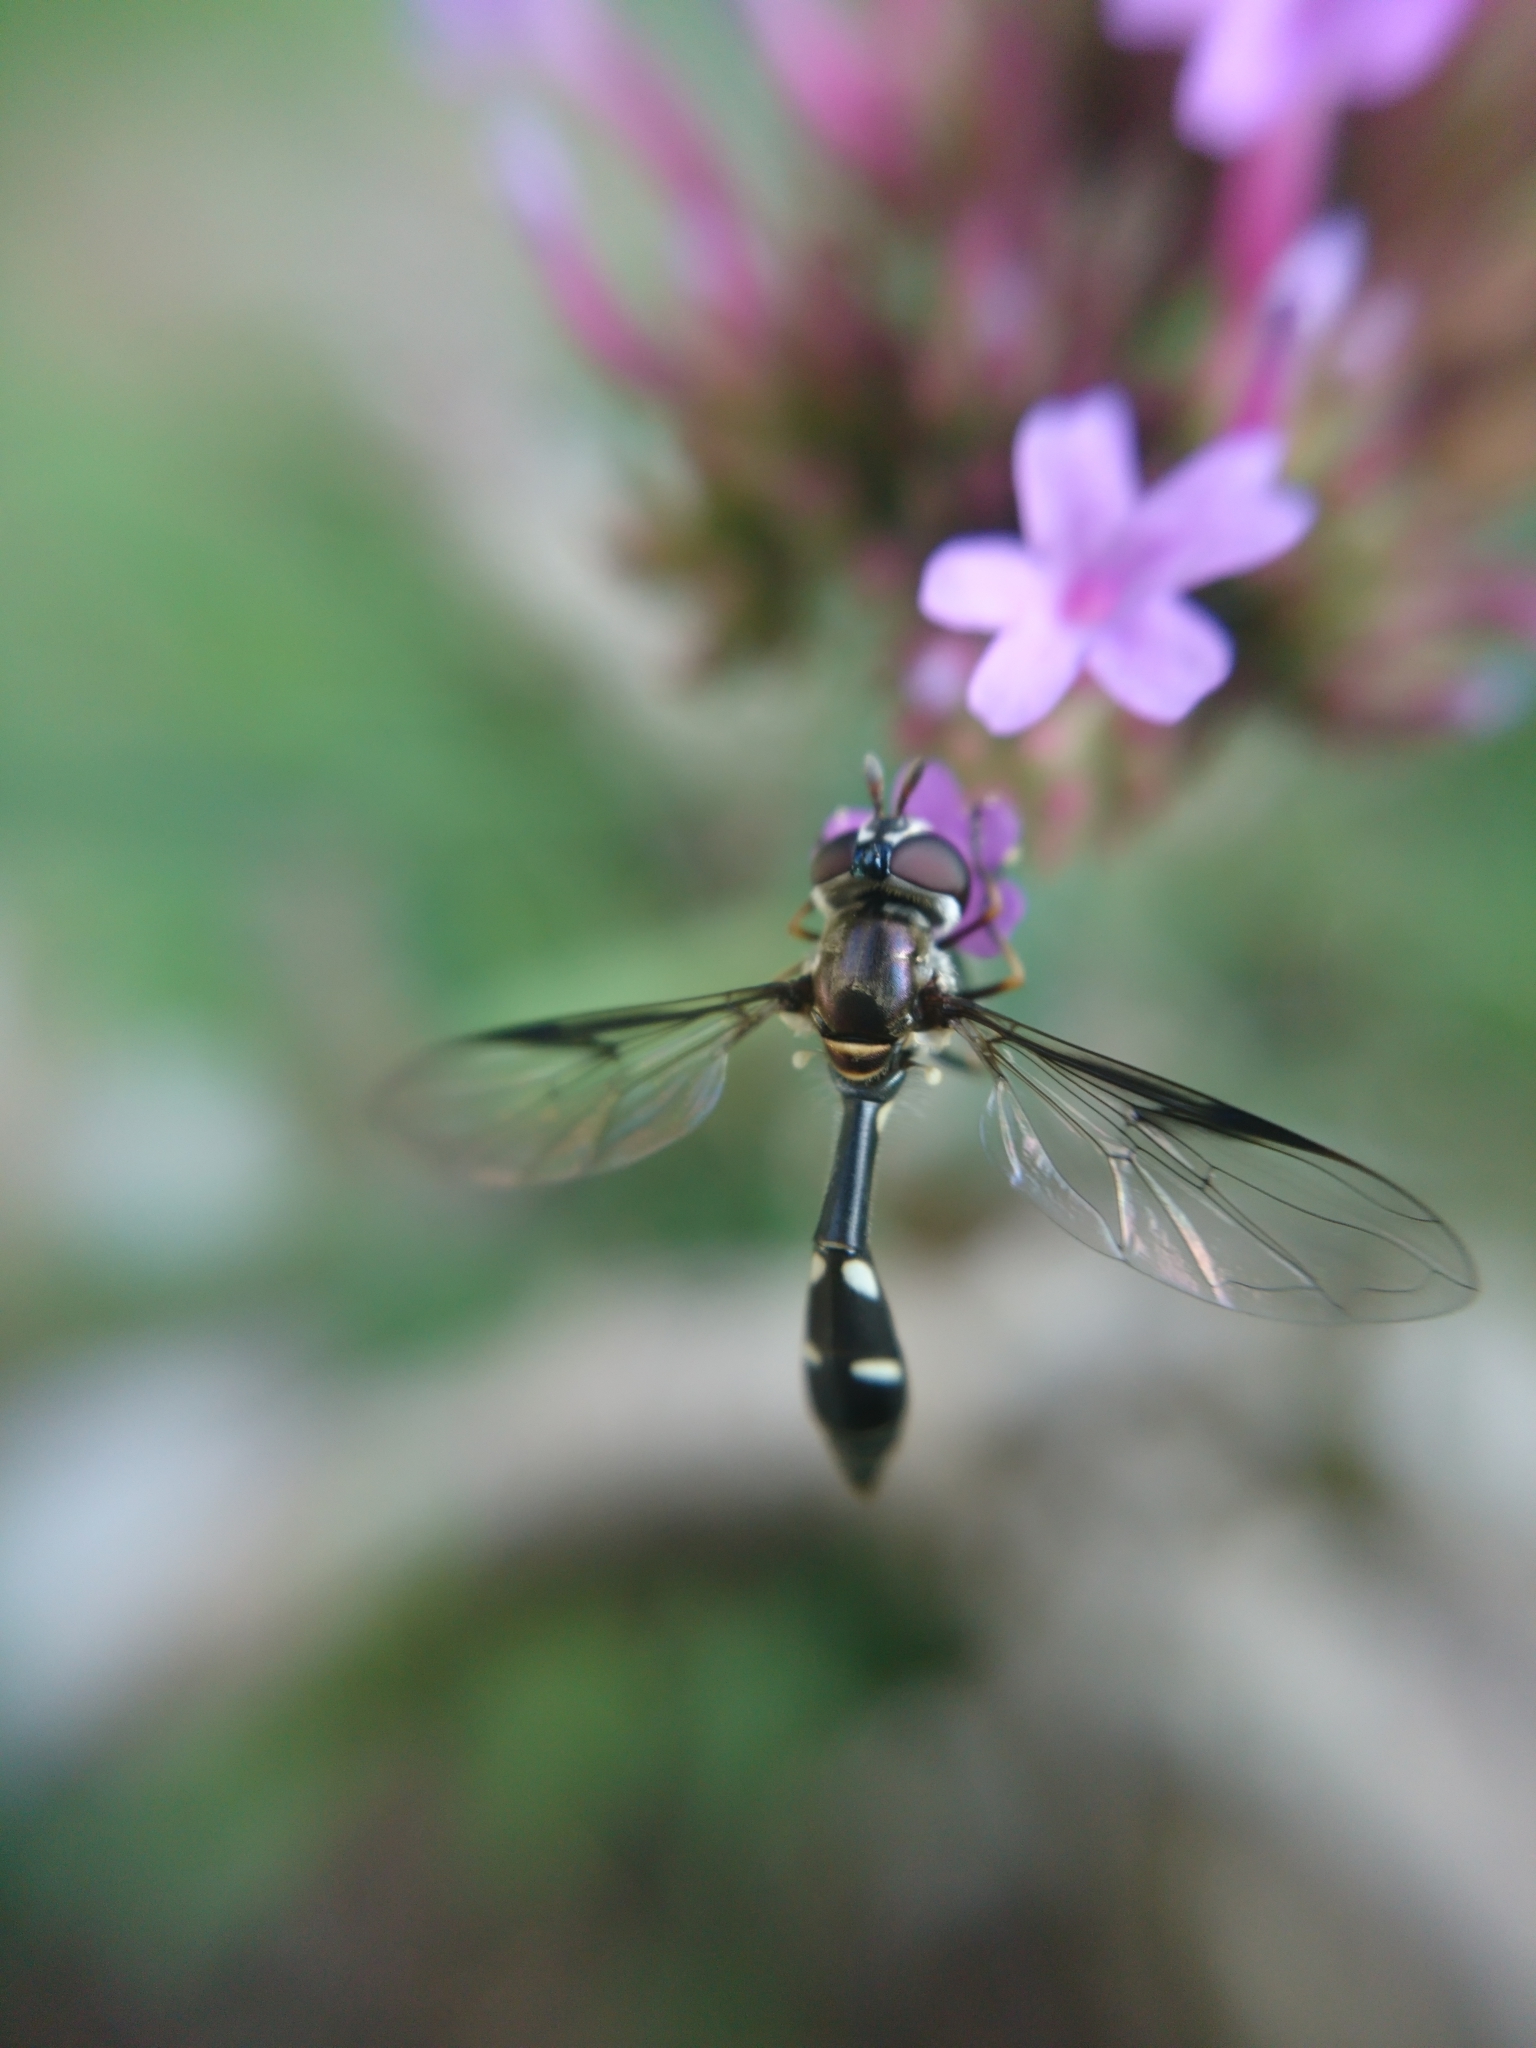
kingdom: Animalia
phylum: Arthropoda
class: Insecta
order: Diptera
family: Syrphidae
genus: Dioprosopa
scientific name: Dioprosopa clavatus
